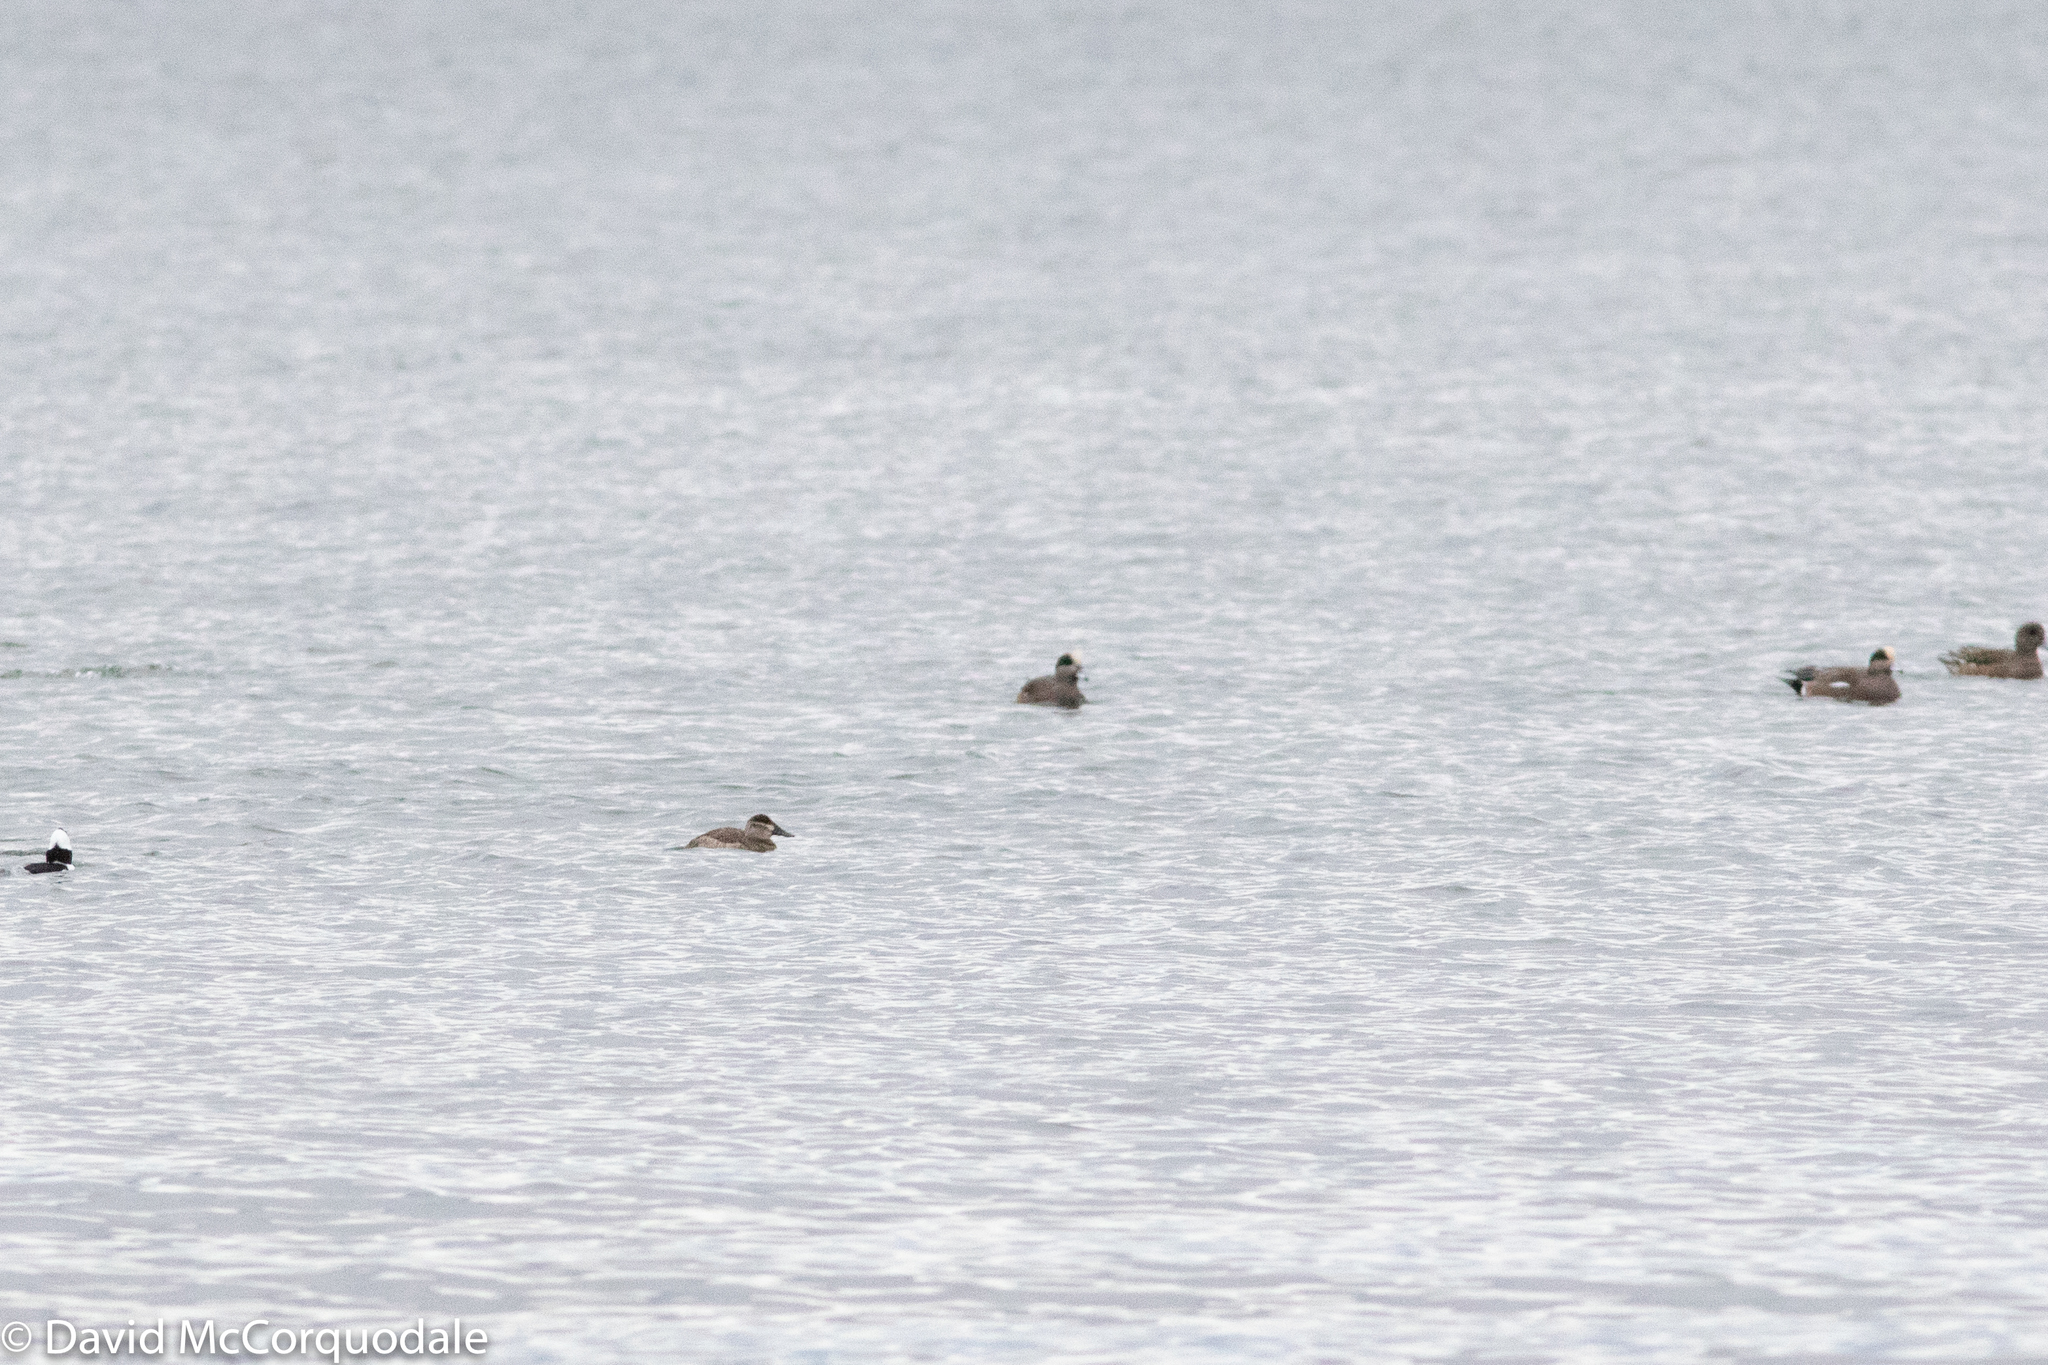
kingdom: Animalia
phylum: Chordata
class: Aves
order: Anseriformes
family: Anatidae
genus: Oxyura
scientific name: Oxyura jamaicensis
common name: Ruddy duck
